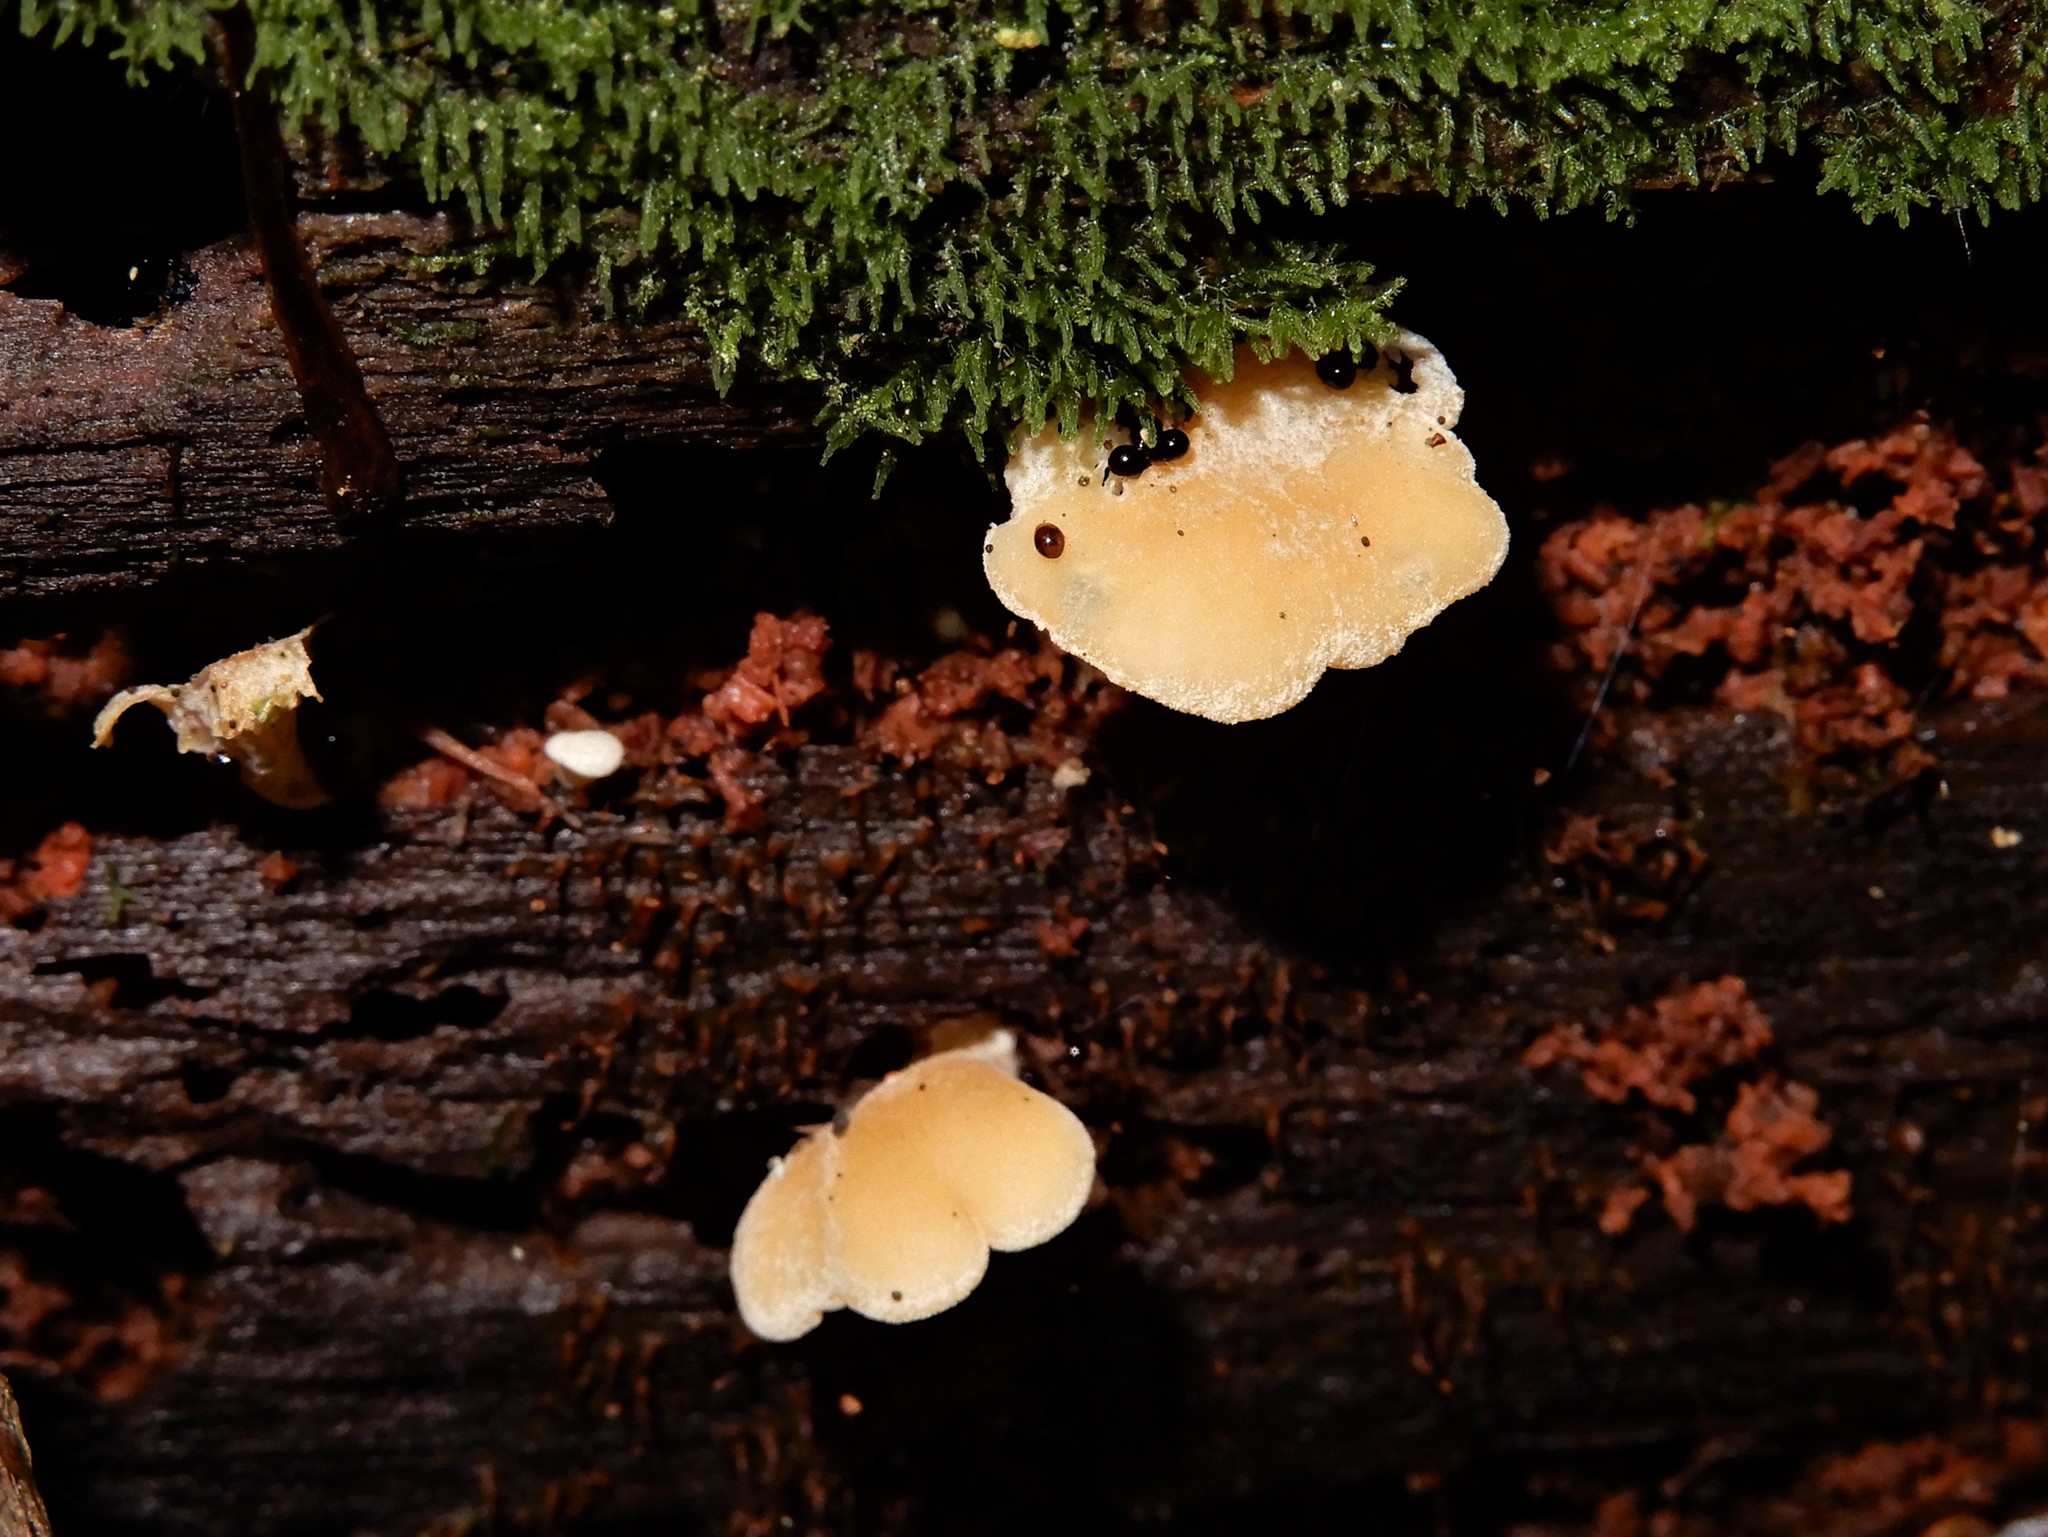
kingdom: Fungi
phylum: Basidiomycota
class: Agaricomycetes
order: Agaricales
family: Pleurotaceae
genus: Hohenbuehelia
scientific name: Hohenbuehelia ligulata
